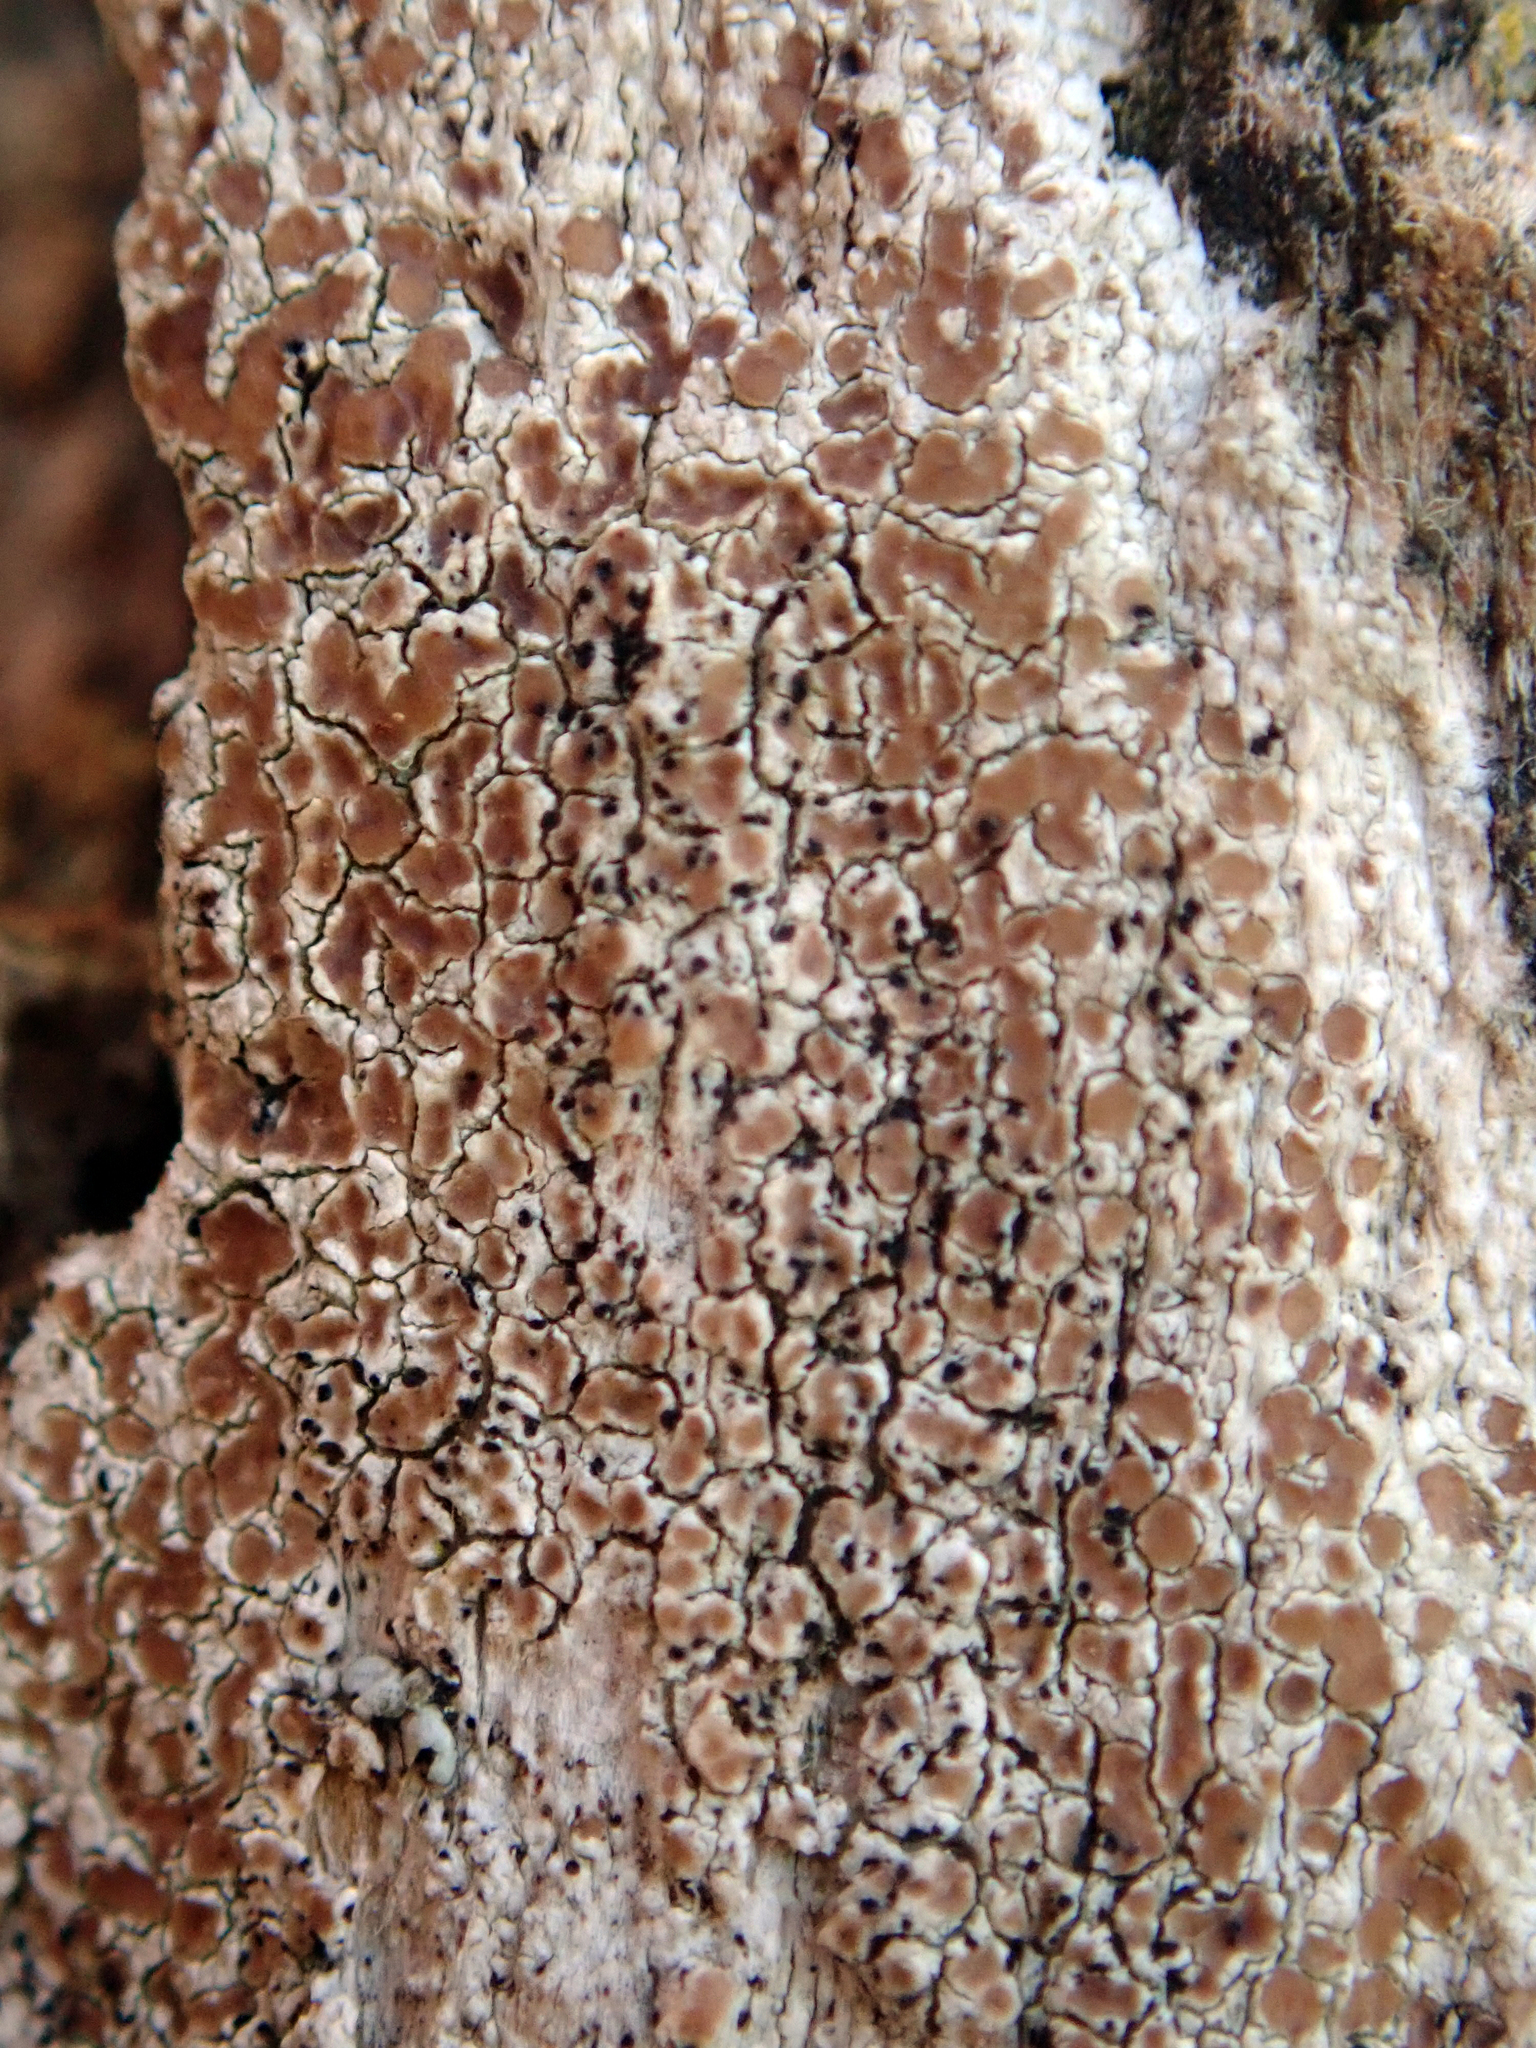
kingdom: Fungi
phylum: Ascomycota
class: Lecanoromycetes
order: Lecanorales
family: Lecanoraceae
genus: Lecanora
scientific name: Lecanora kohu
